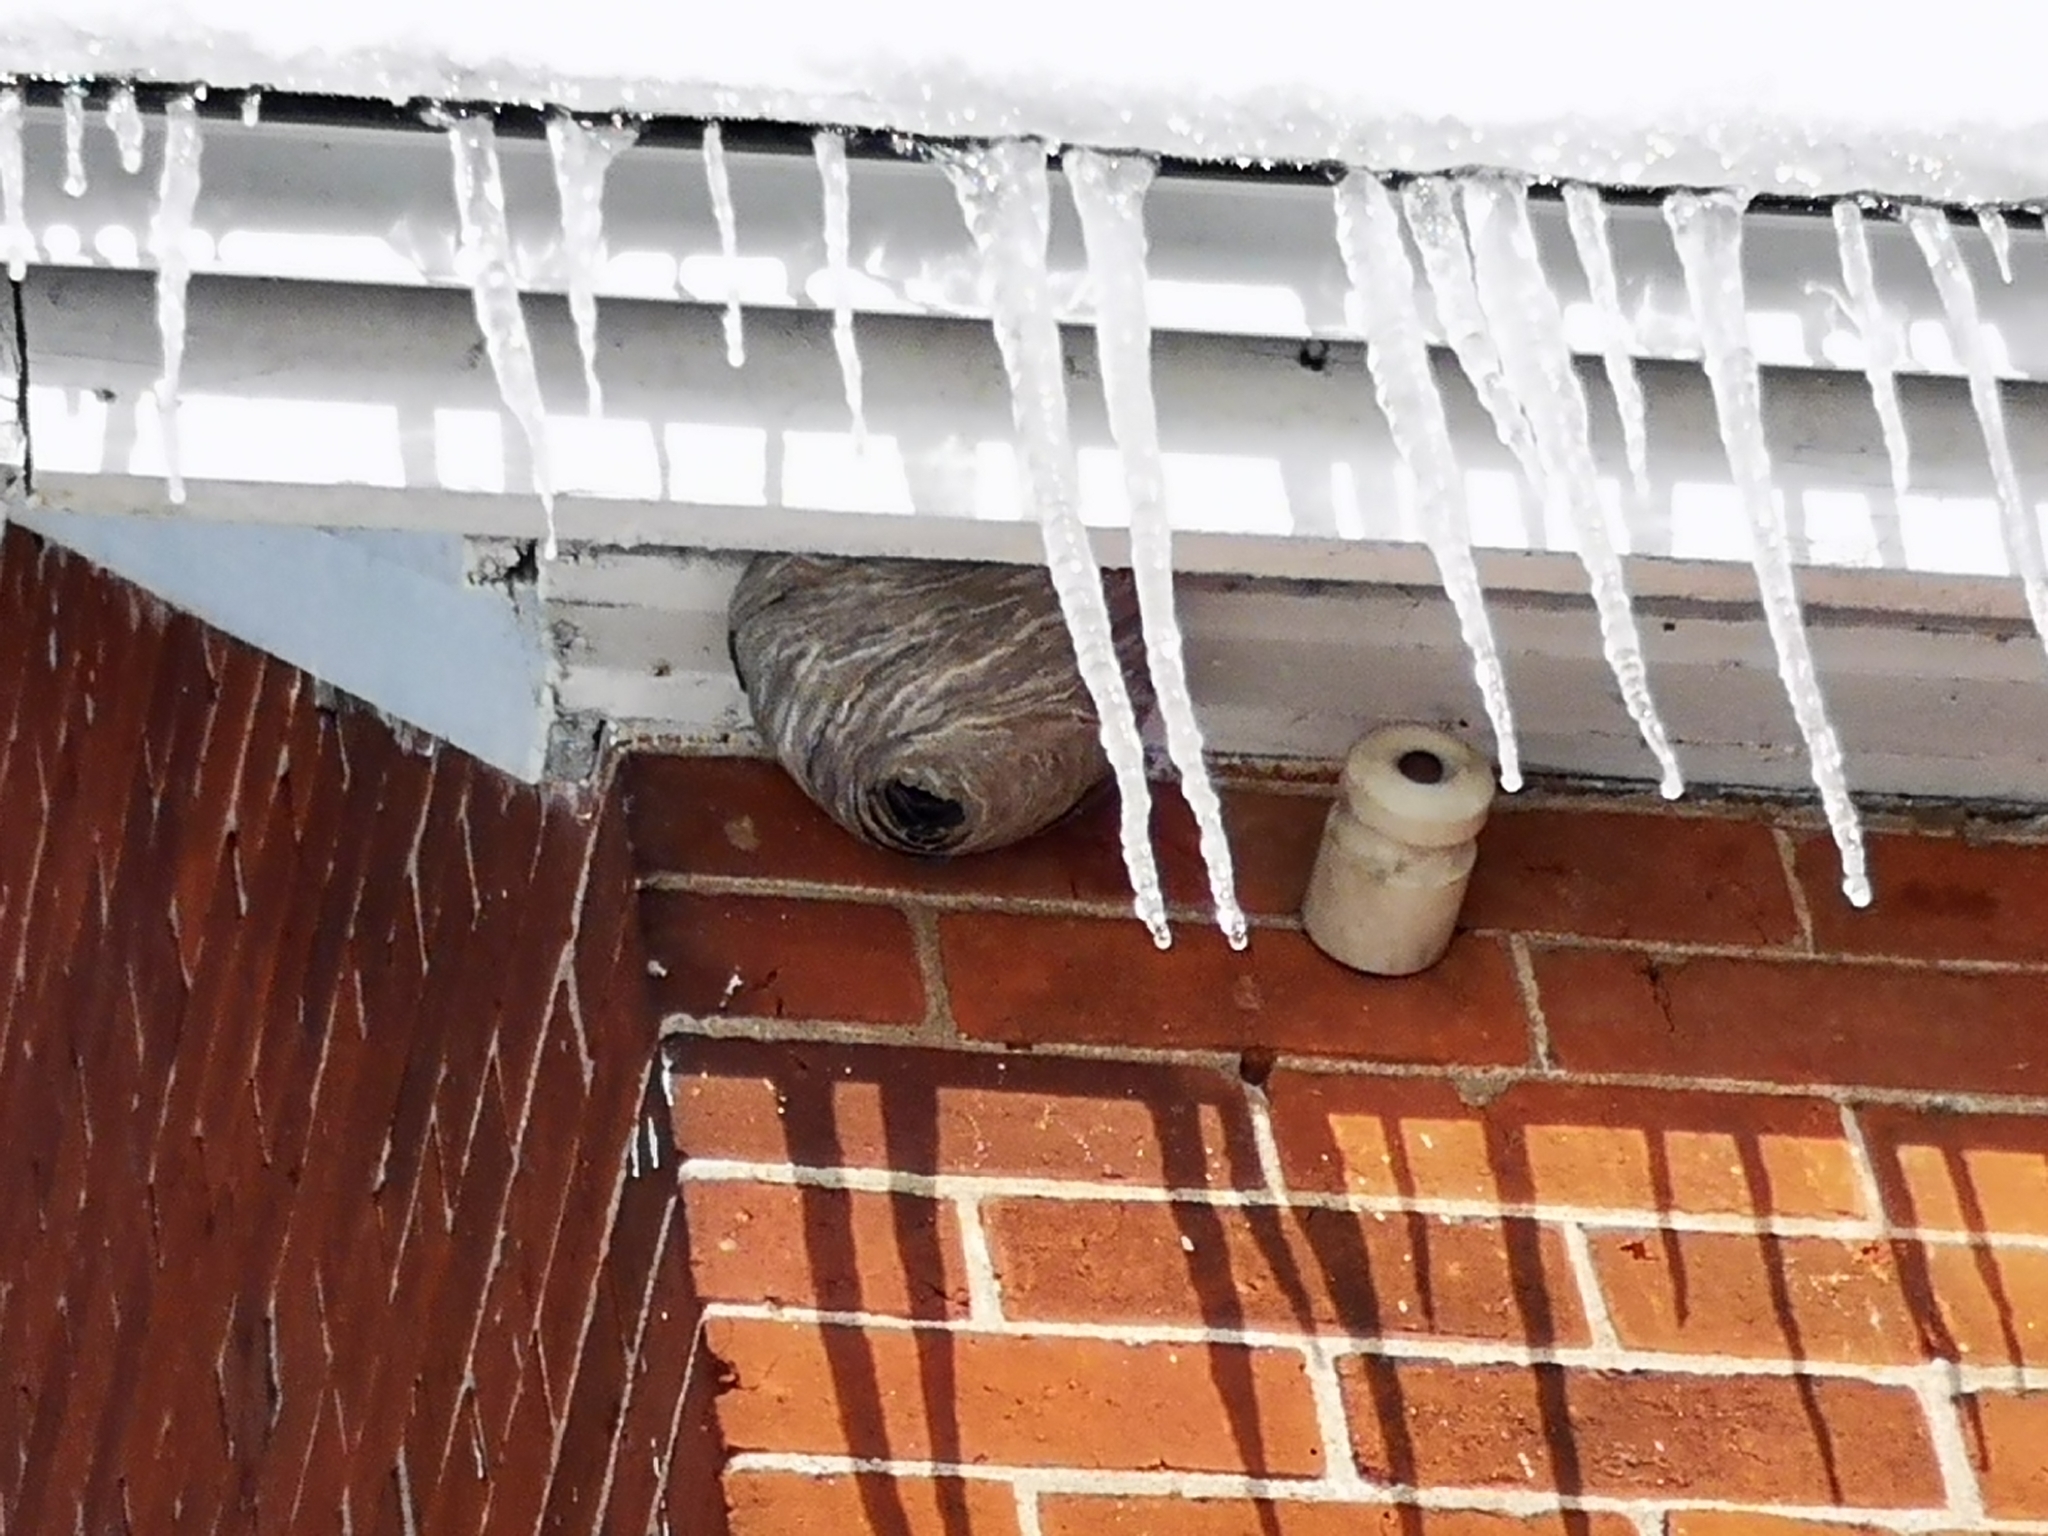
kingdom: Animalia
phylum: Arthropoda
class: Insecta
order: Hymenoptera
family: Vespidae
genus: Dolichovespula
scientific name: Dolichovespula
